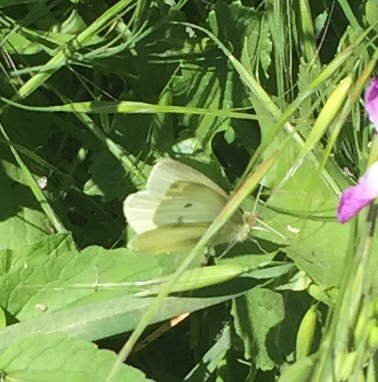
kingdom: Animalia
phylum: Arthropoda
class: Insecta
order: Lepidoptera
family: Pieridae
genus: Pieris
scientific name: Pieris rapae
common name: Small white
